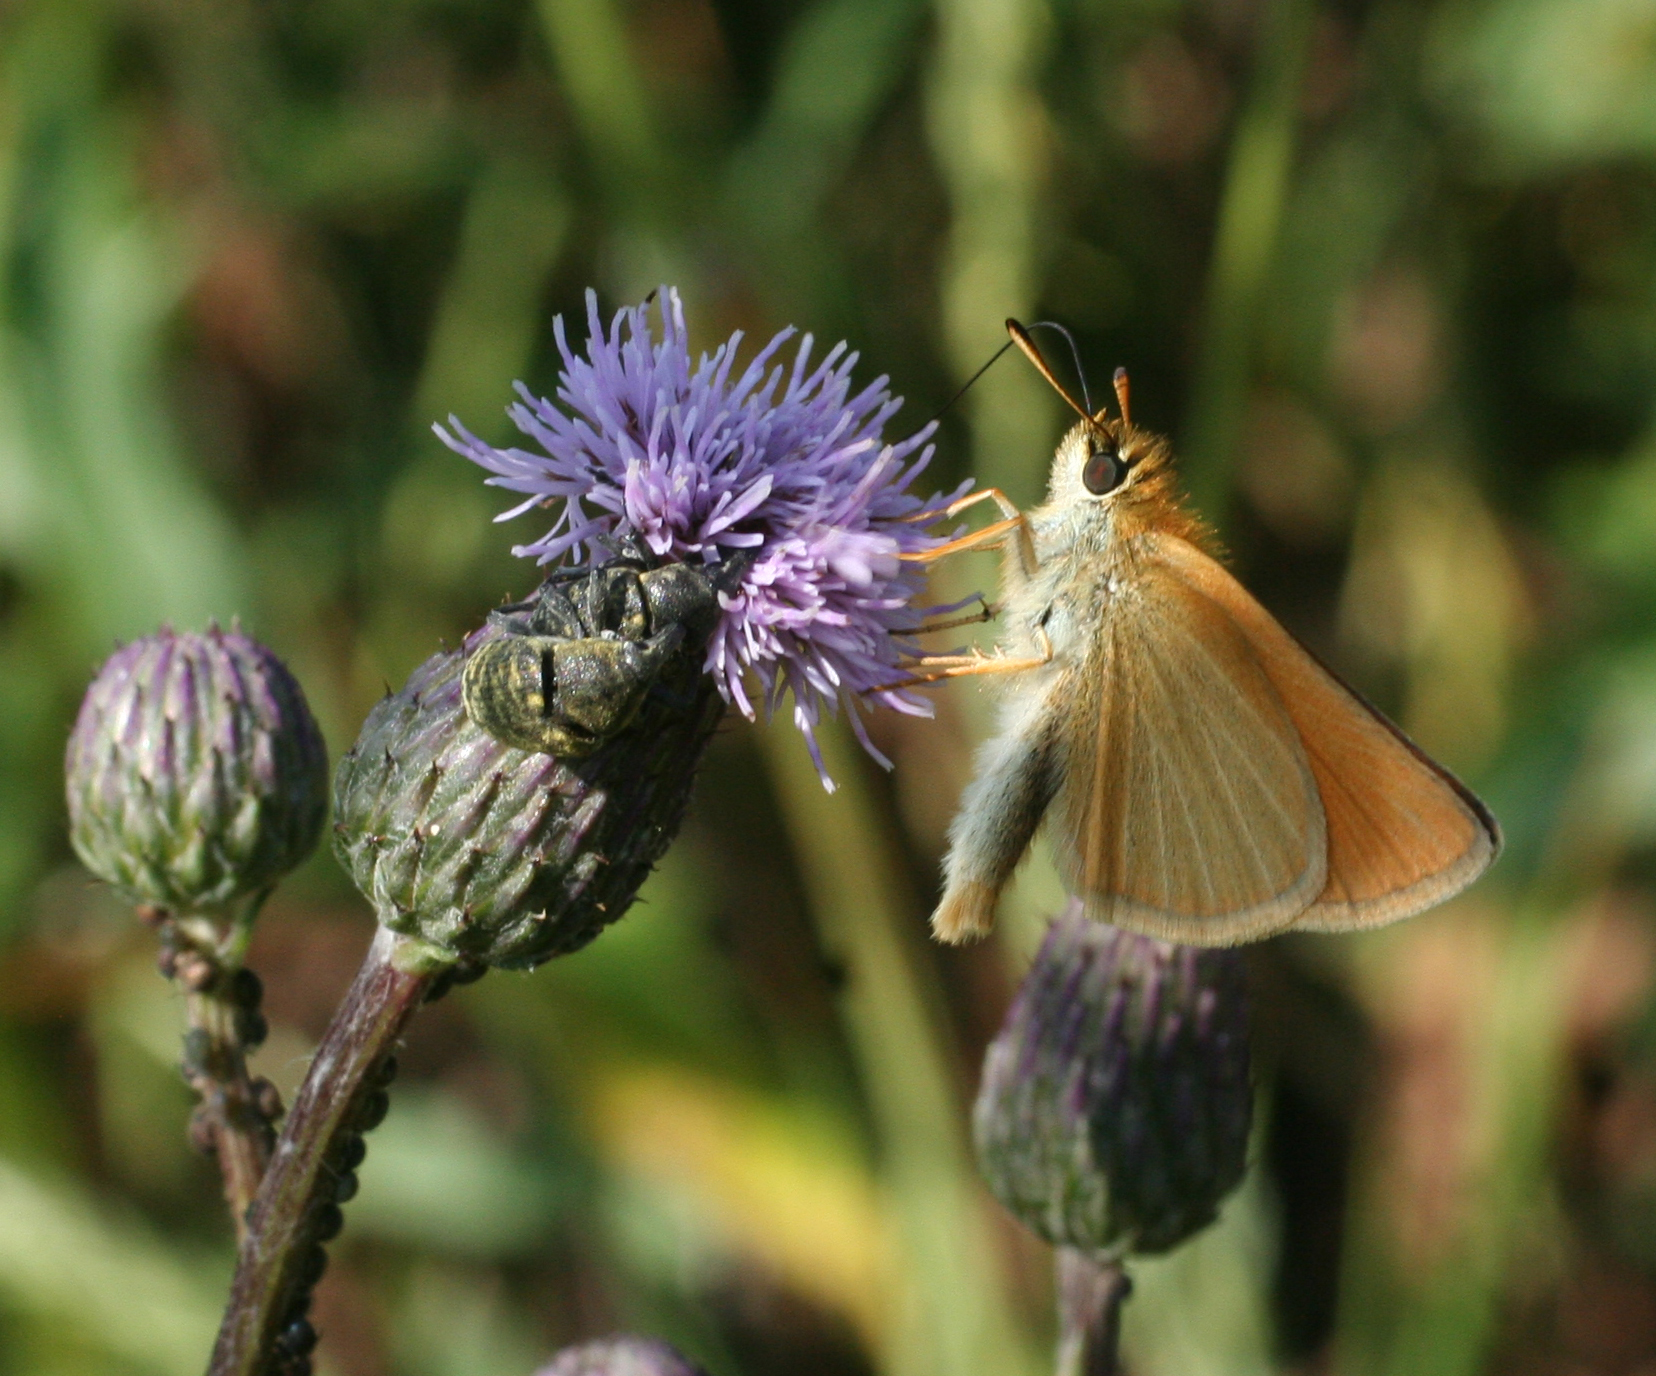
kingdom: Animalia
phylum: Arthropoda
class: Insecta
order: Lepidoptera
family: Hesperiidae
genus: Thymelicus
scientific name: Thymelicus lineola
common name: Essex skipper
